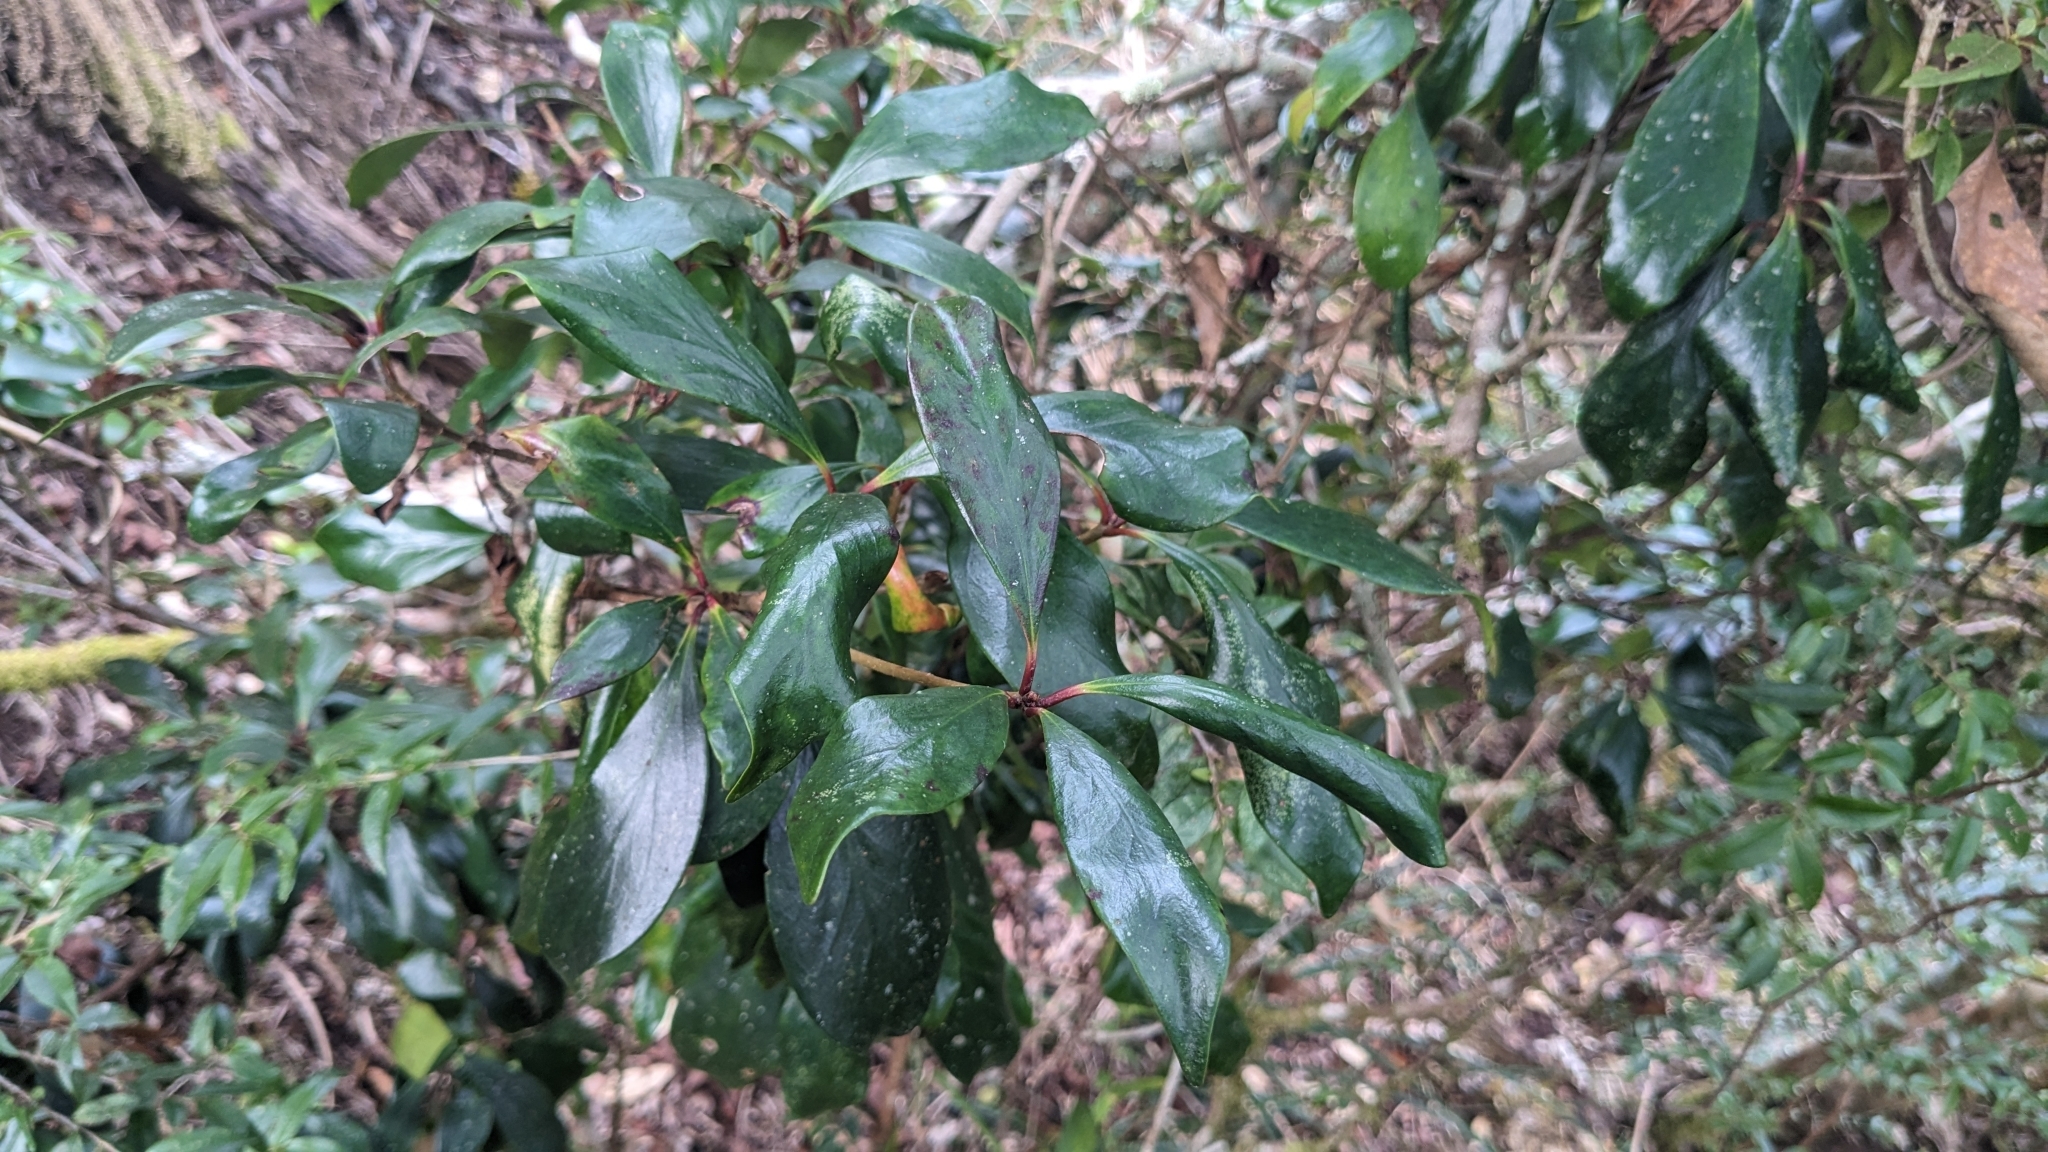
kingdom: Plantae
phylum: Tracheophyta
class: Magnoliopsida
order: Ericales
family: Pentaphylacaceae
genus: Ternstroemia
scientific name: Ternstroemia gymnanthera
